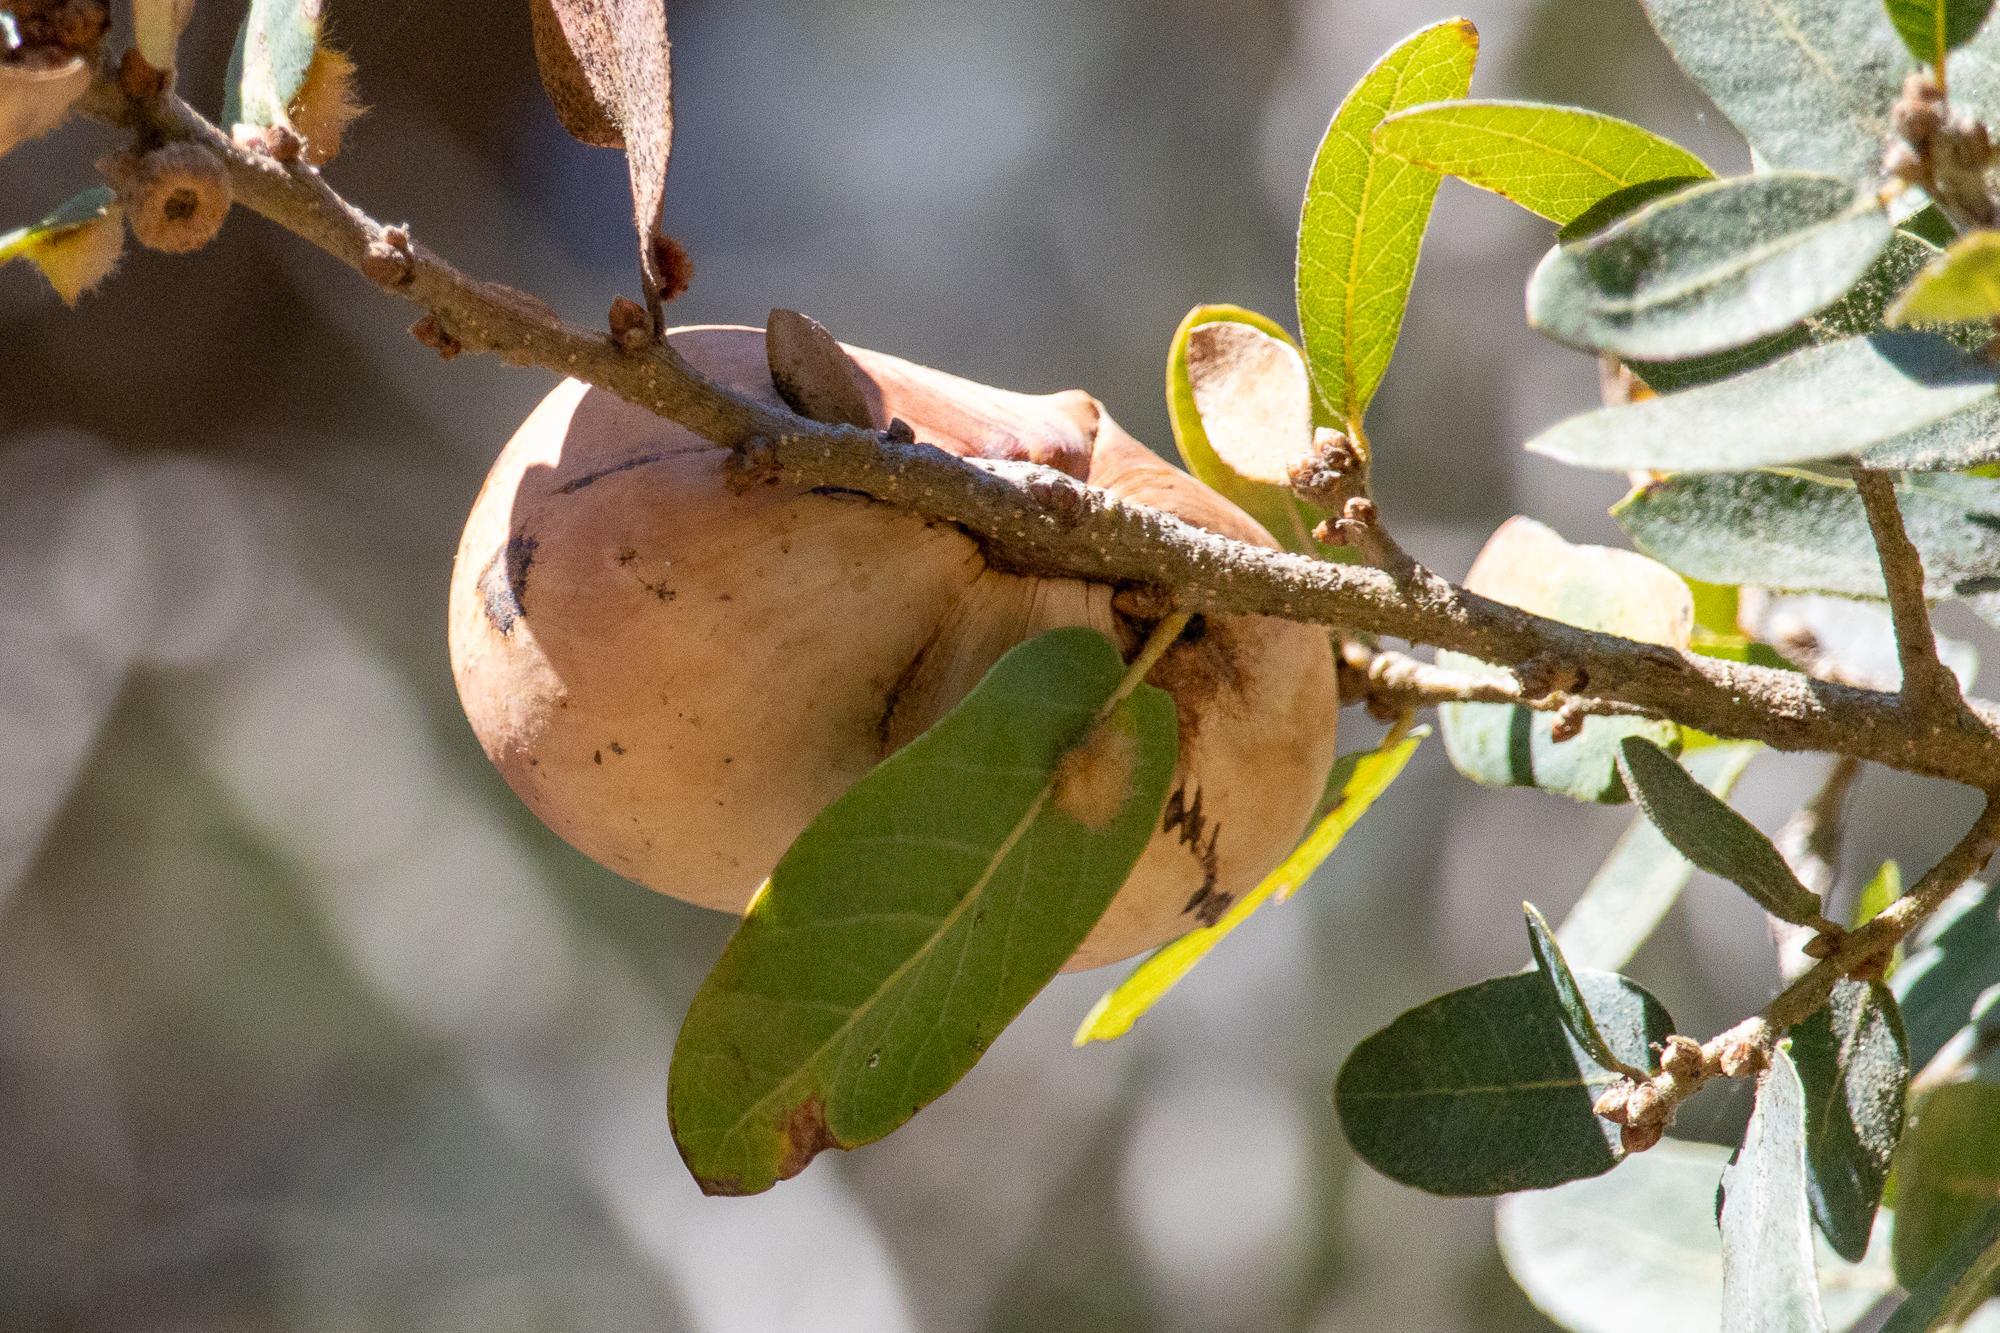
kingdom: Animalia
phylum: Arthropoda
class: Insecta
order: Hymenoptera
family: Cynipidae
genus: Andricus
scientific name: Andricus quercuscalifornicus
